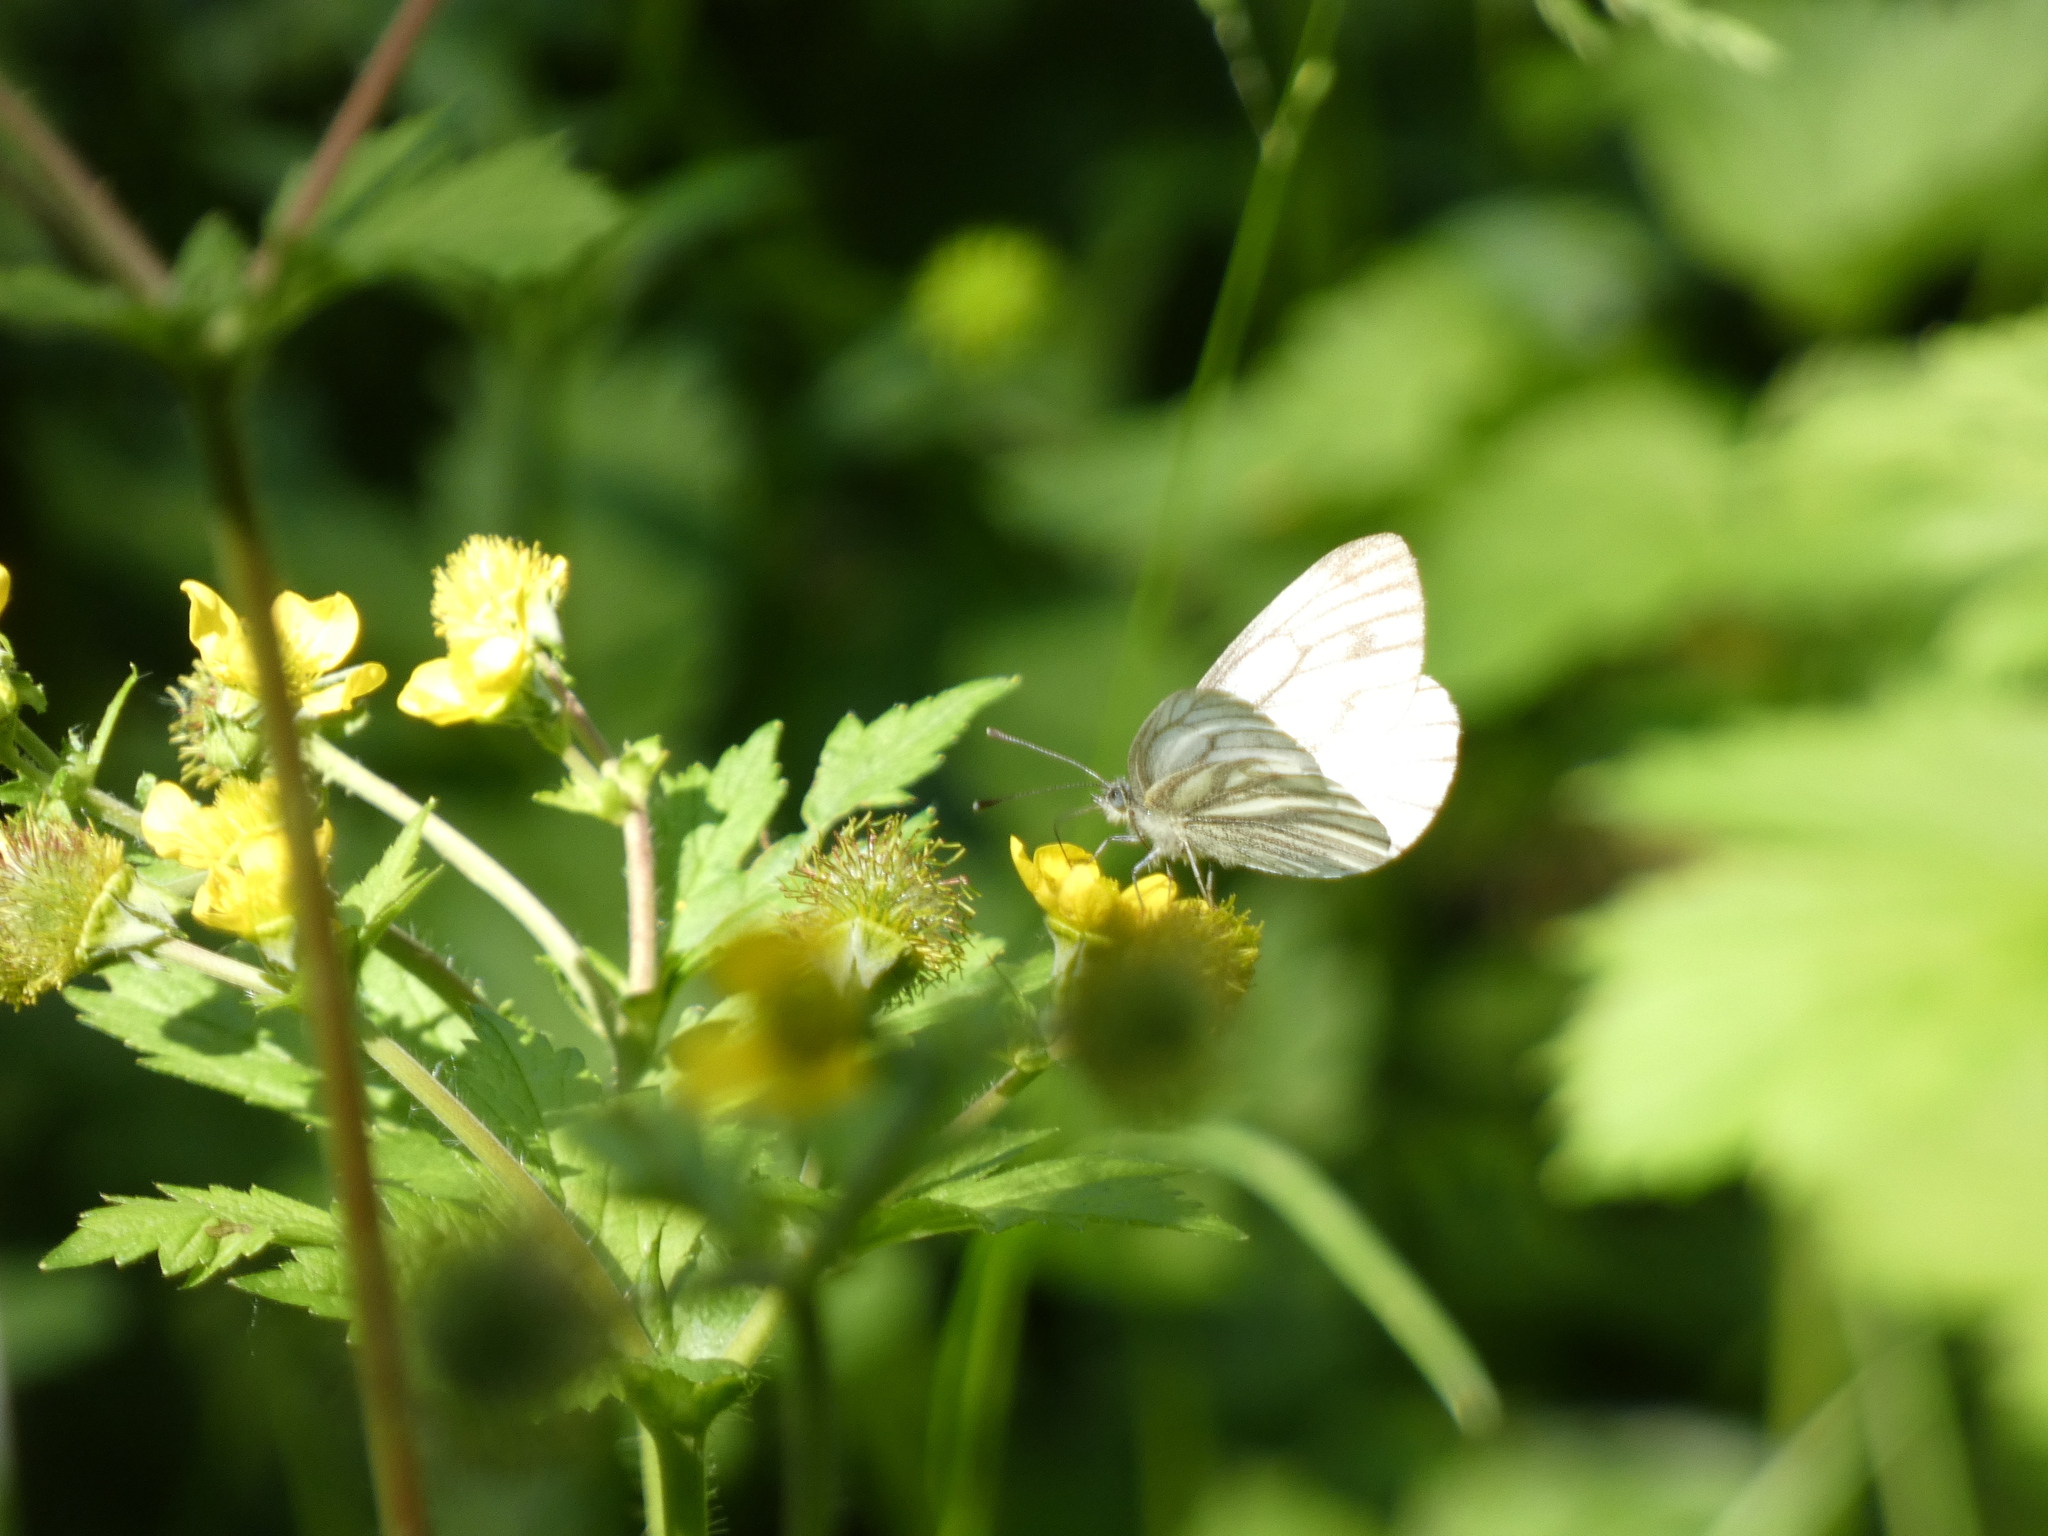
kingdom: Animalia
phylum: Arthropoda
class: Insecta
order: Lepidoptera
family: Pieridae
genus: Pieris
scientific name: Pieris napi
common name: Green-veined white
